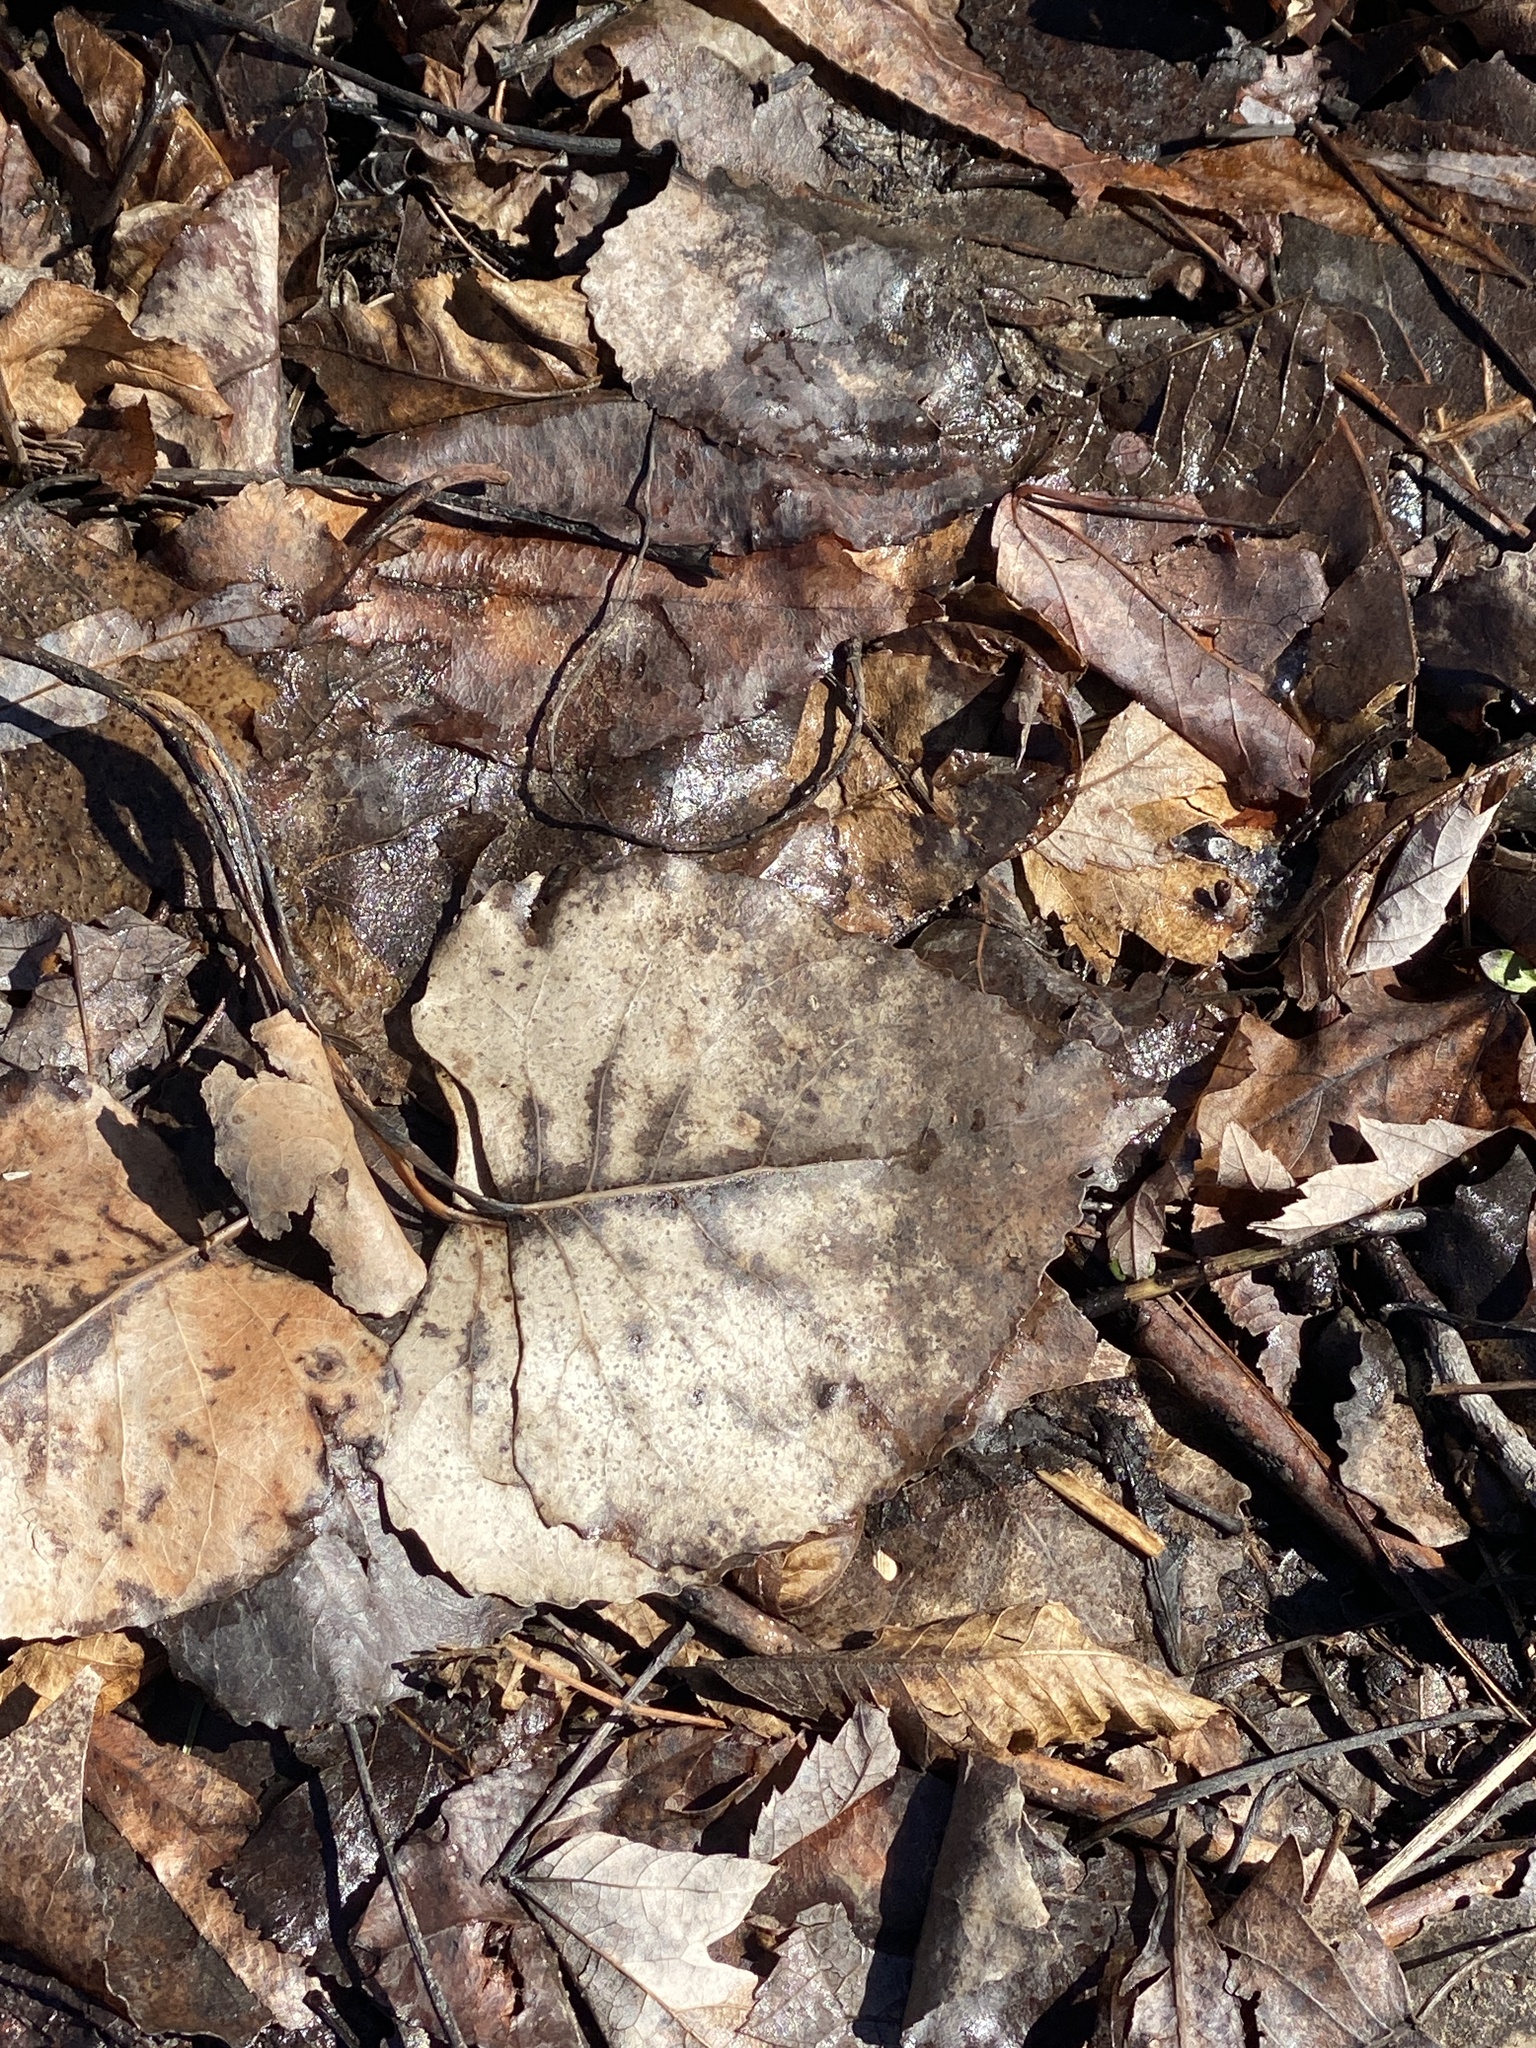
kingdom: Plantae
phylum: Tracheophyta
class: Magnoliopsida
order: Malpighiales
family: Salicaceae
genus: Populus
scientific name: Populus deltoides
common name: Eastern cottonwood
